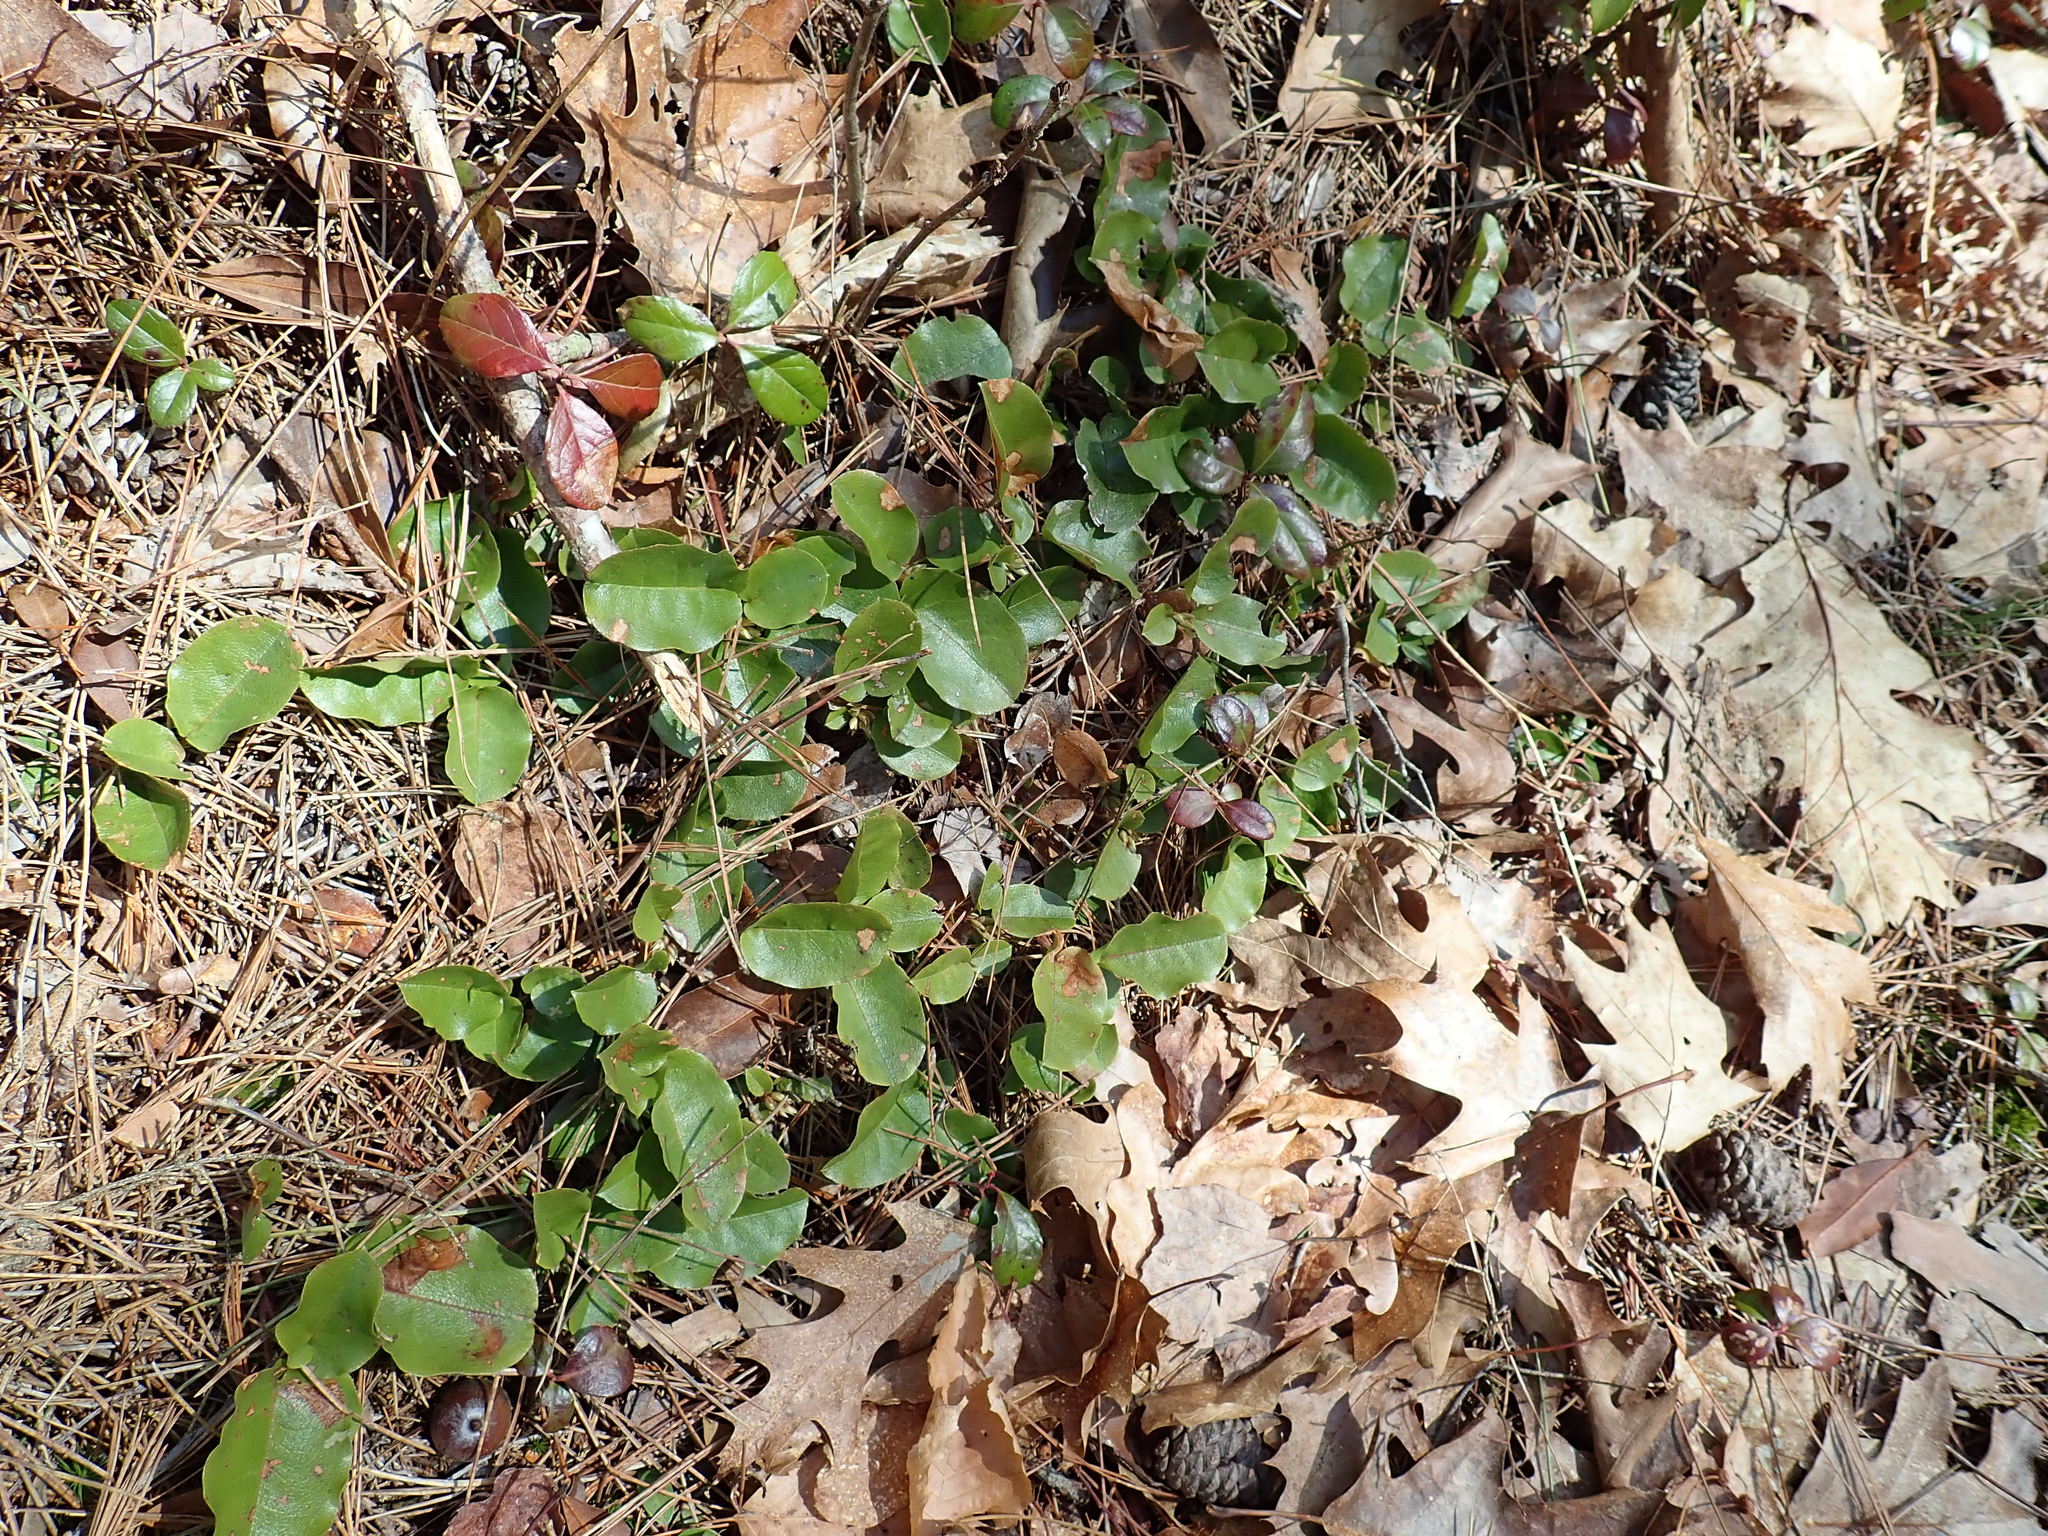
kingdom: Plantae
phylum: Tracheophyta
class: Magnoliopsida
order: Ericales
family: Ericaceae
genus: Epigaea
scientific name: Epigaea repens
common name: Gravelroot
